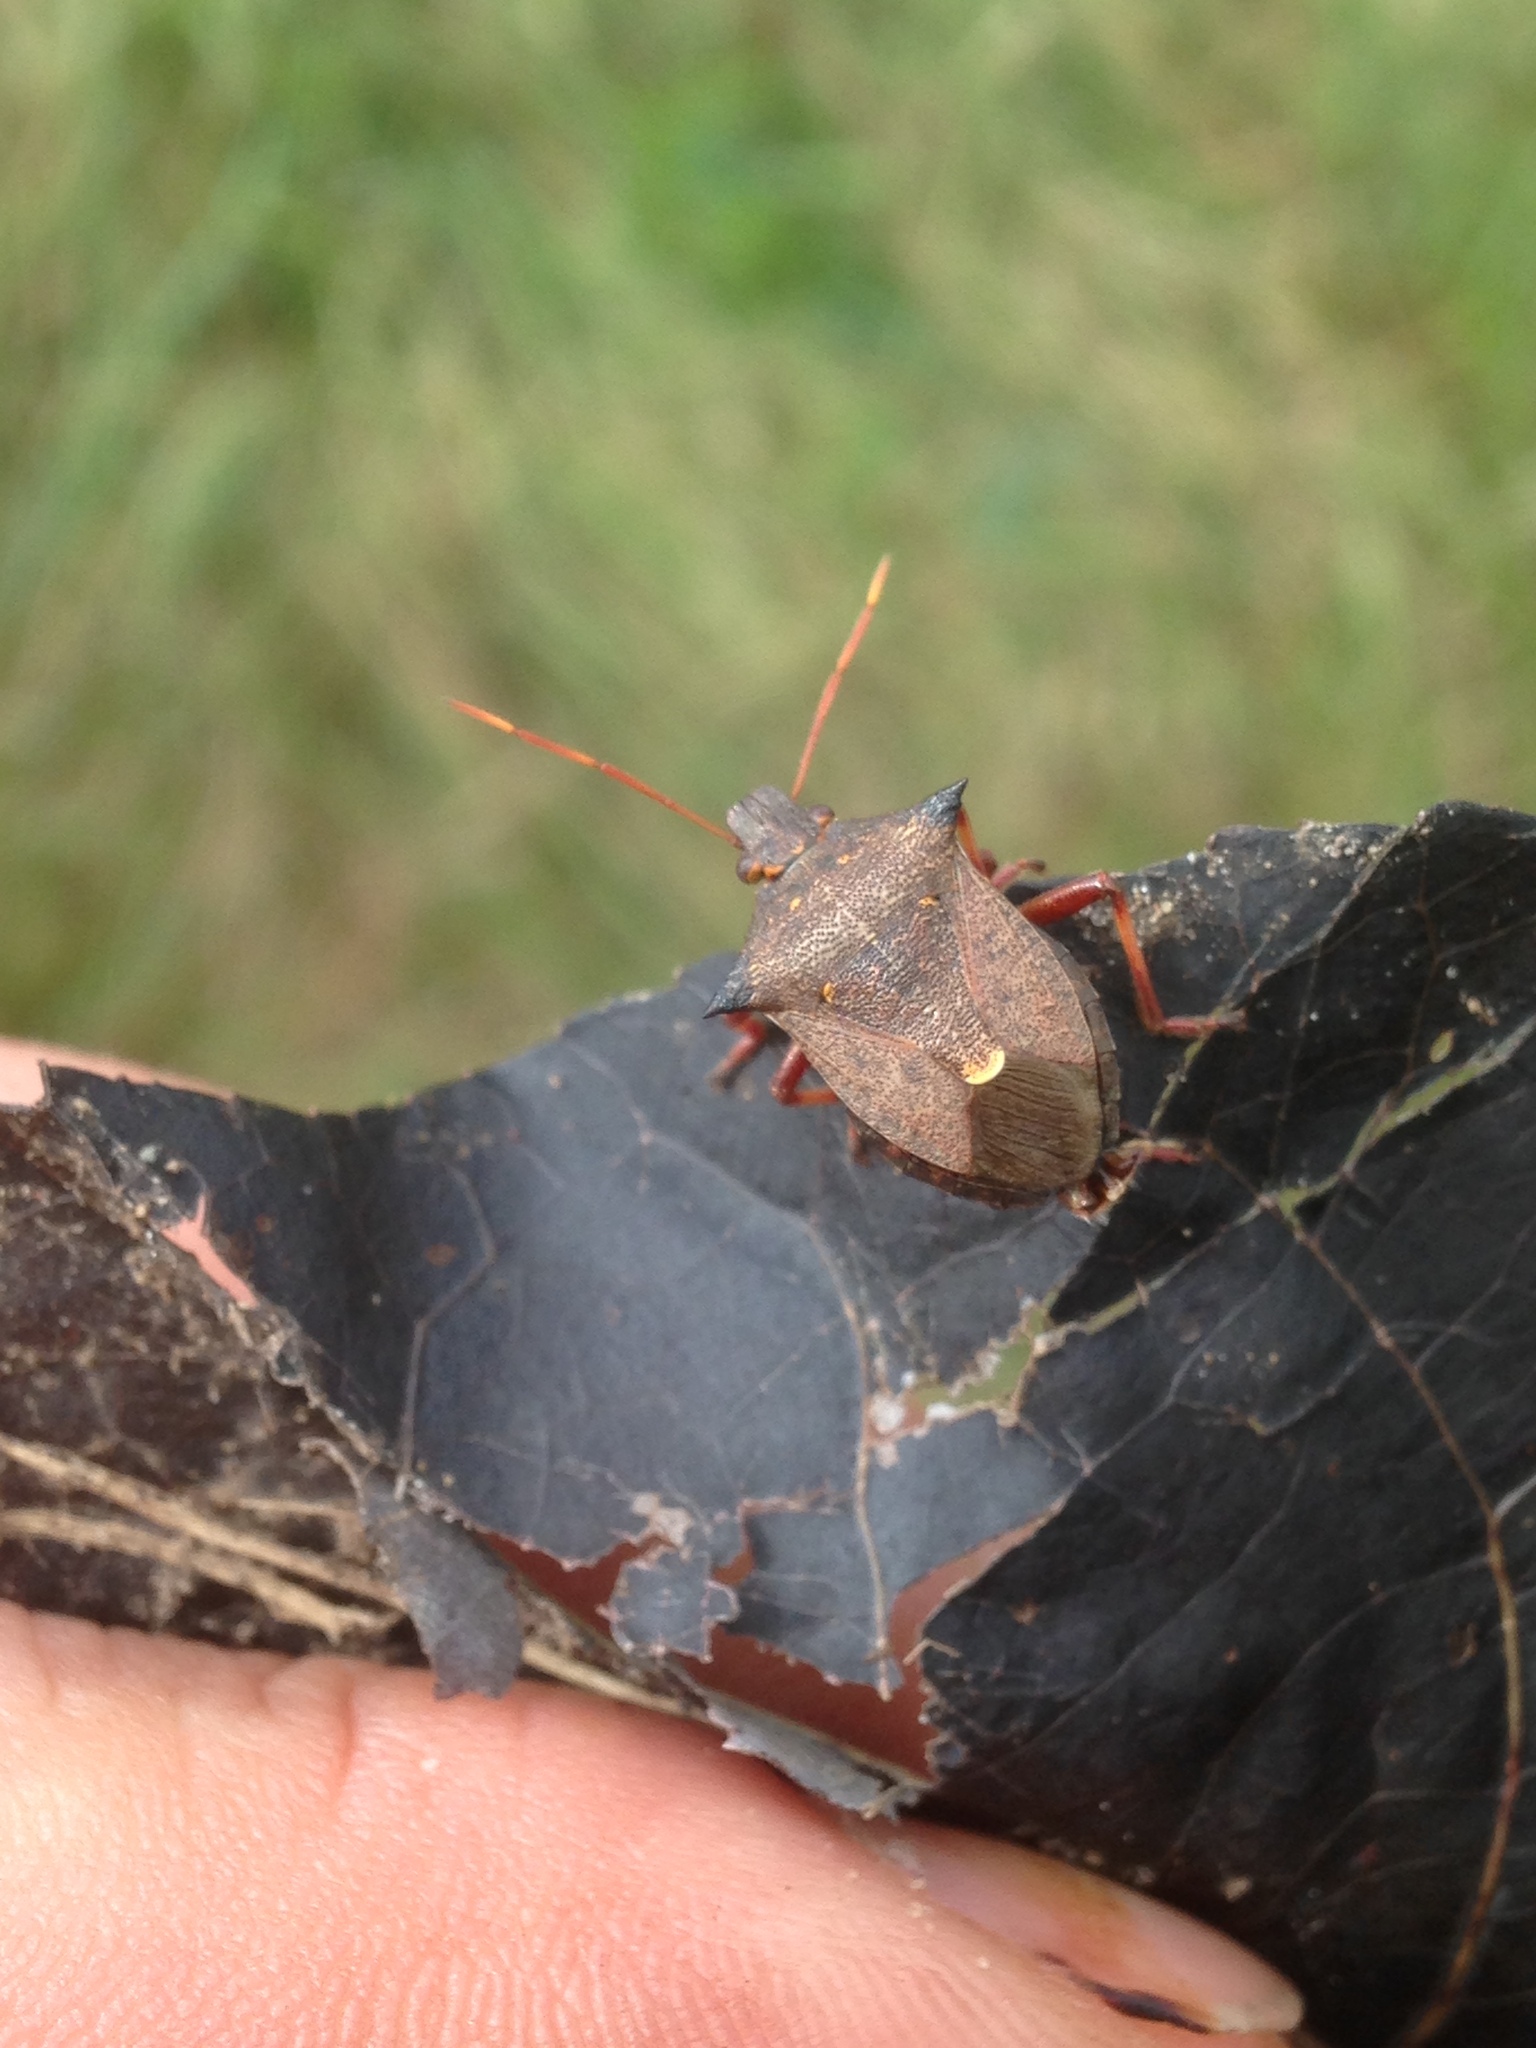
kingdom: Animalia
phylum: Arthropoda
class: Insecta
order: Hemiptera
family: Pentatomidae
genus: Picromerus
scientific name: Picromerus bidens
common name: Spiked shieldbug
